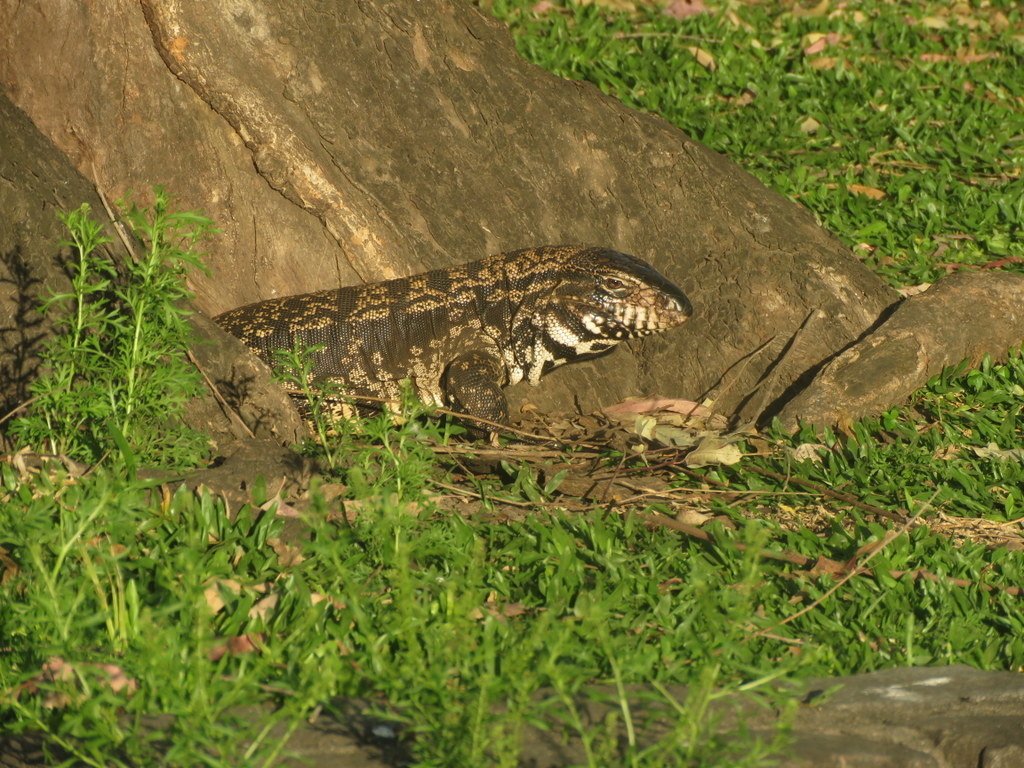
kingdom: Animalia
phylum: Chordata
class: Squamata
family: Teiidae
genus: Salvator
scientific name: Salvator merianae
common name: Argentine black and white tegu
